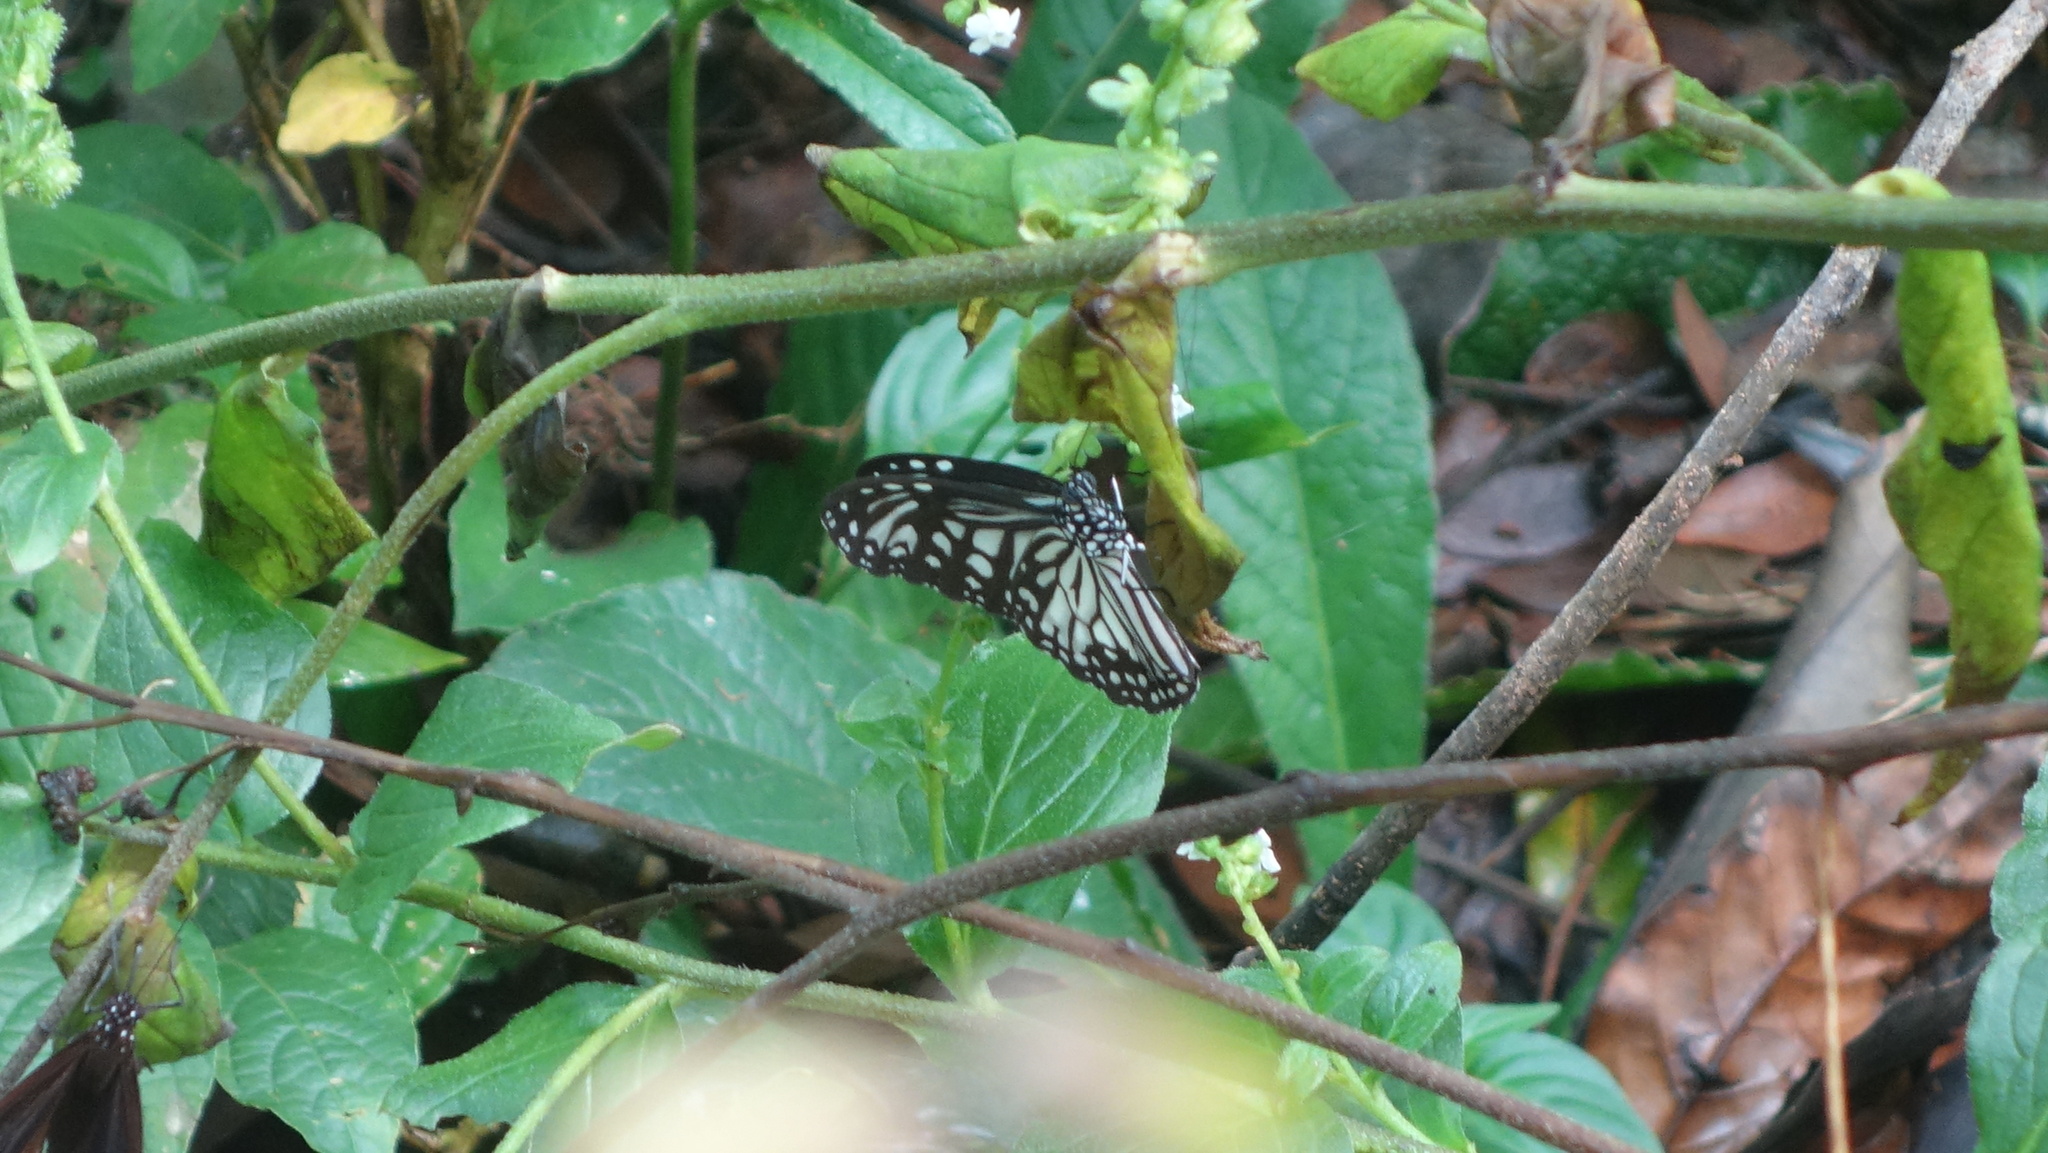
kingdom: Animalia
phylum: Arthropoda
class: Insecta
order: Lepidoptera
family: Nymphalidae
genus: Parantica
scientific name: Parantica aglea
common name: Glassy tiger
